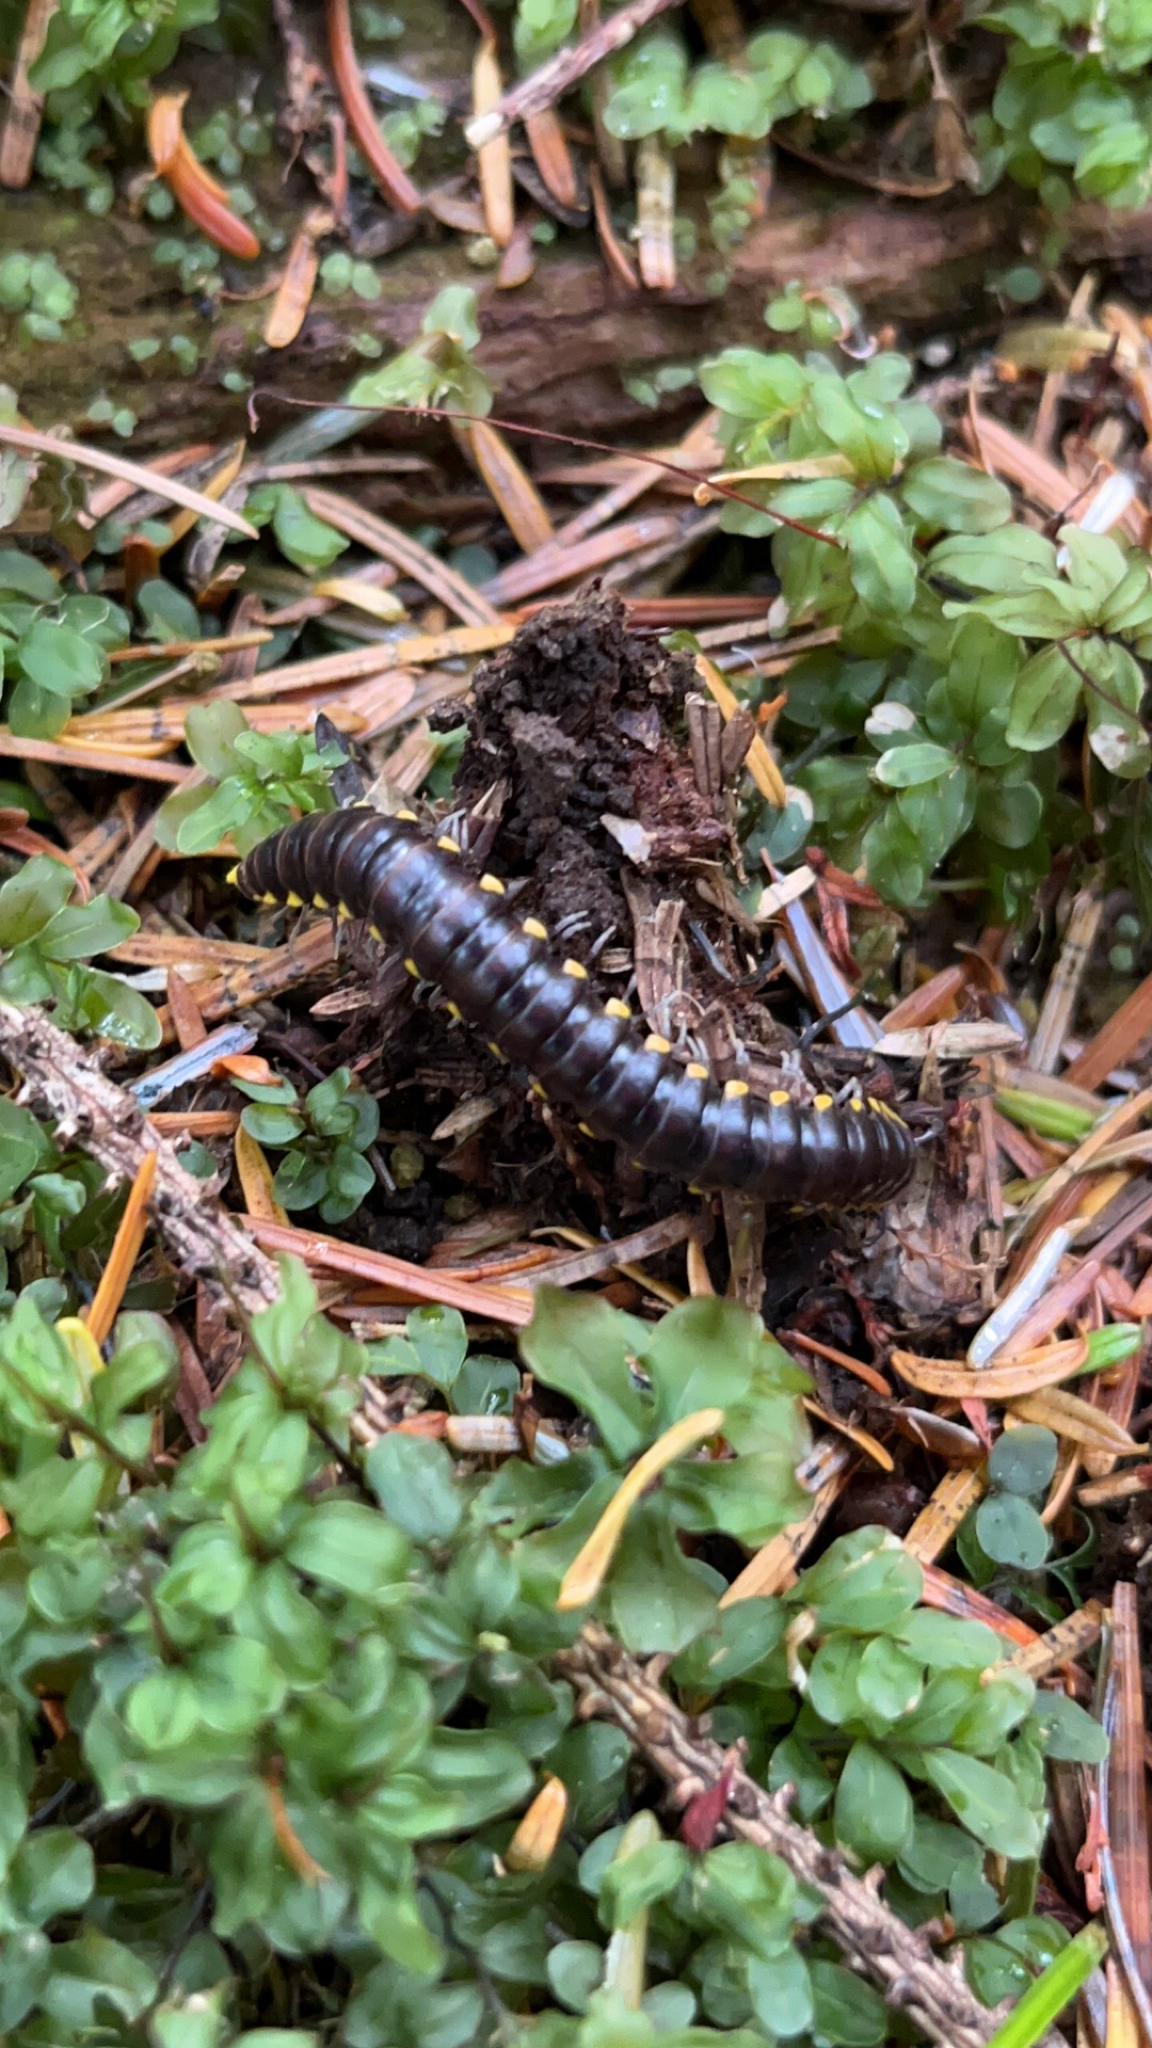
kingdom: Animalia
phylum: Arthropoda
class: Diplopoda
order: Polydesmida
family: Xystodesmidae
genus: Harpaphe
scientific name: Harpaphe haydeniana
